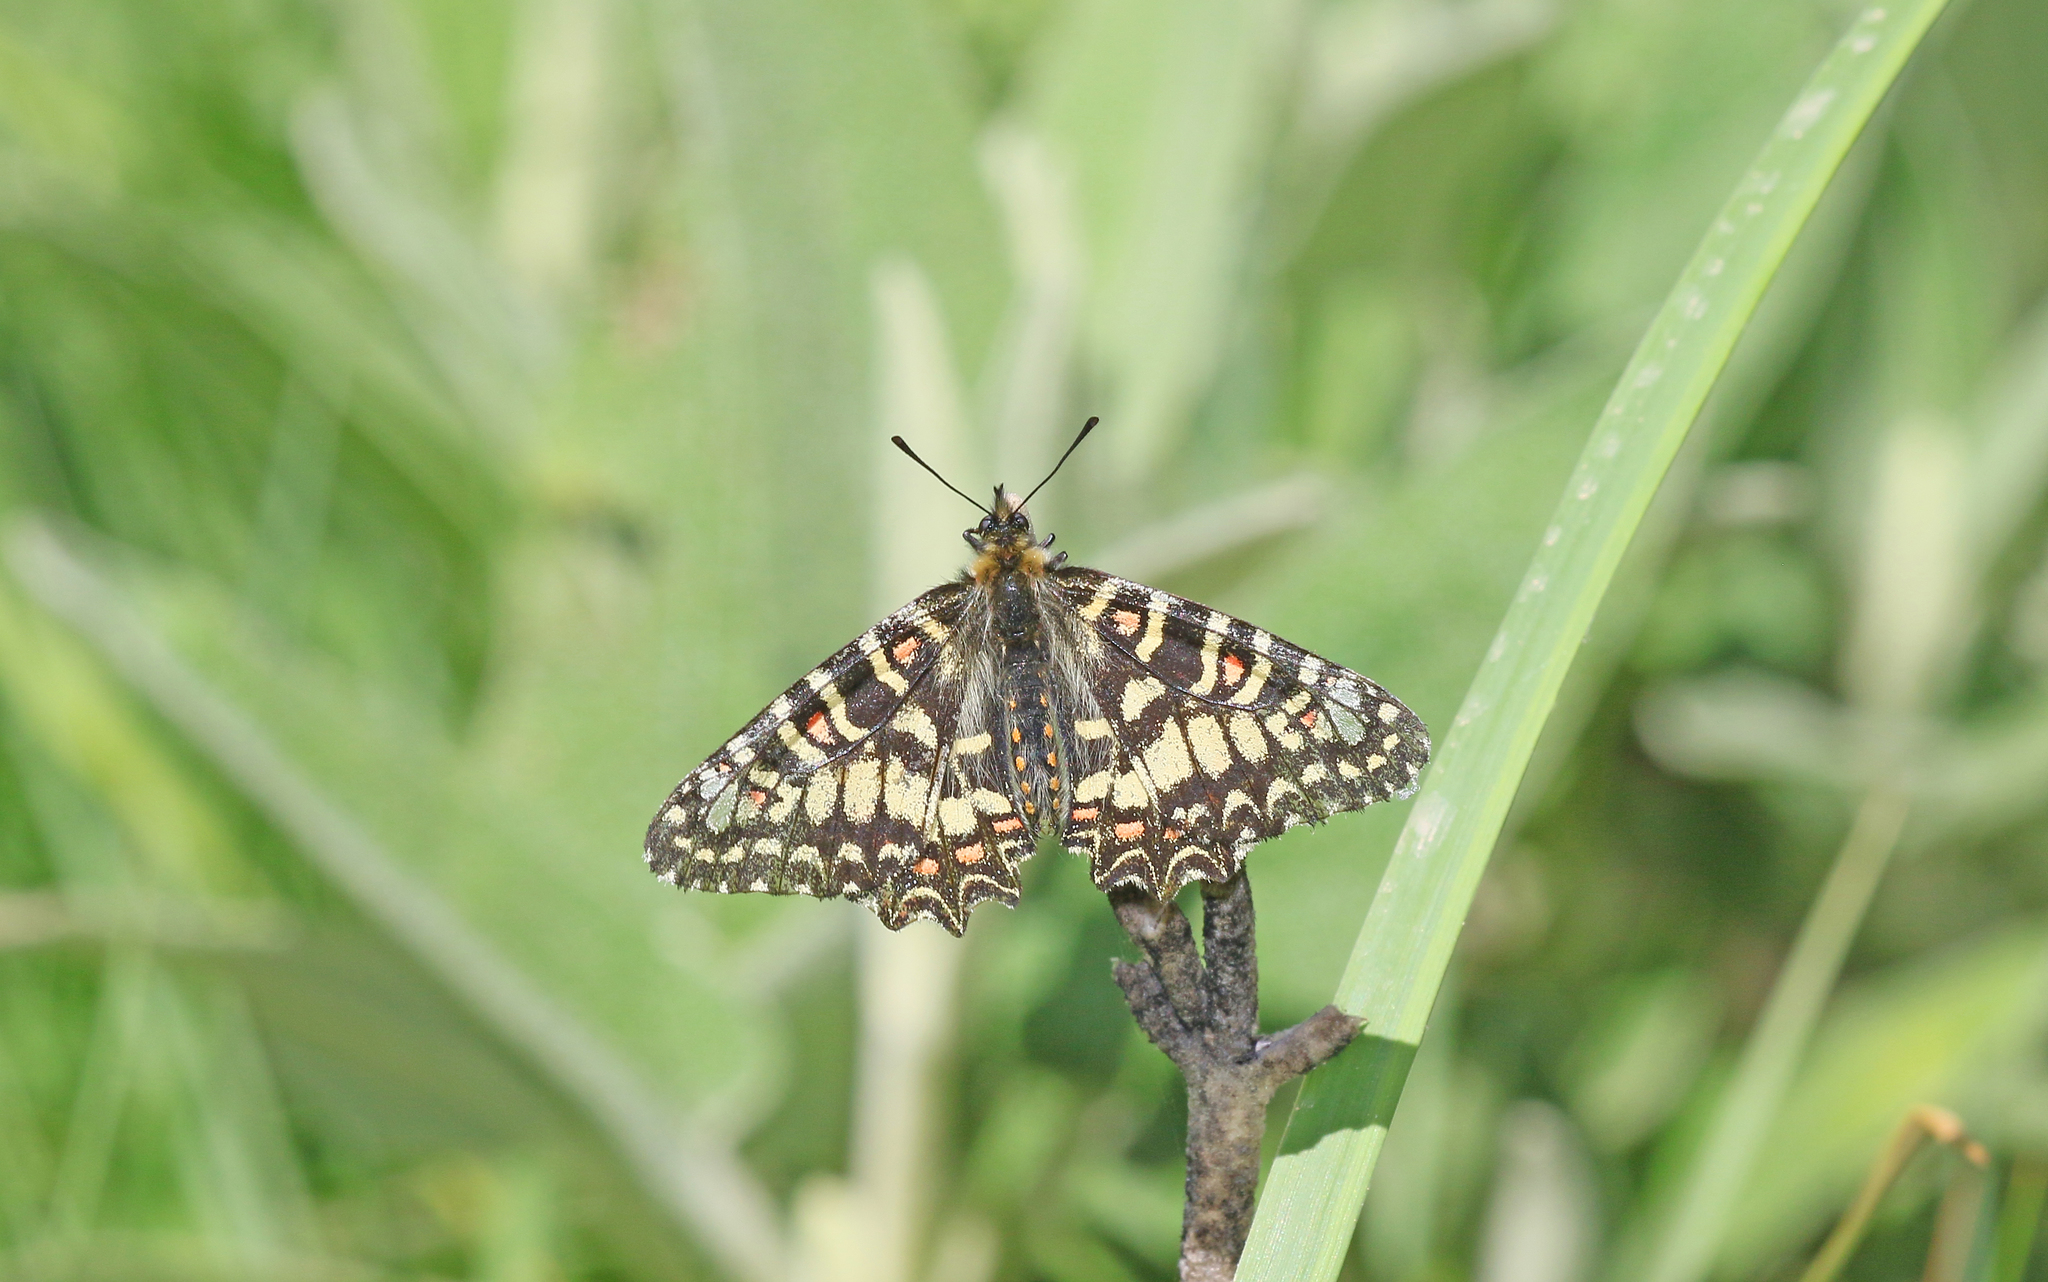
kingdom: Animalia
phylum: Arthropoda
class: Insecta
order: Lepidoptera
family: Papilionidae
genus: Zerynthia
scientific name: Zerynthia rumina
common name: Spanish festoon
